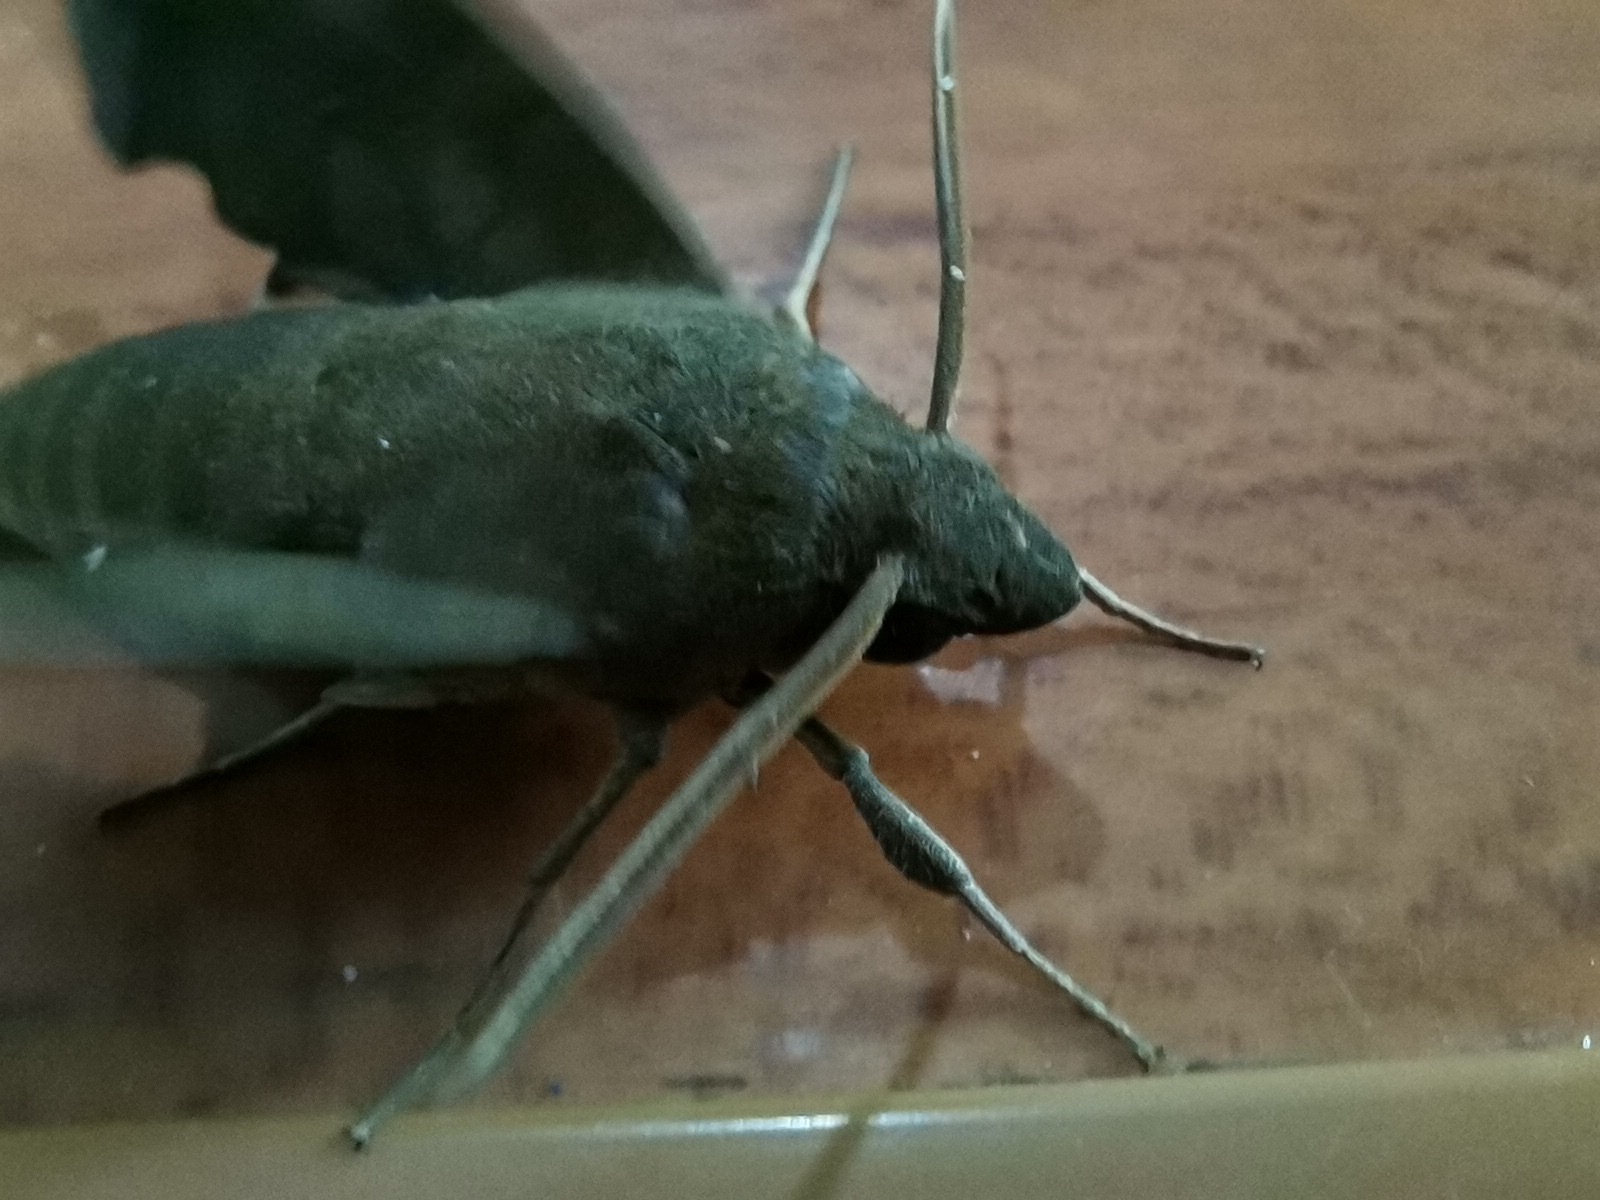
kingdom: Animalia
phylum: Arthropoda
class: Insecta
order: Lepidoptera
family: Sphingidae
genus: Pachylia
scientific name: Pachylia syces
